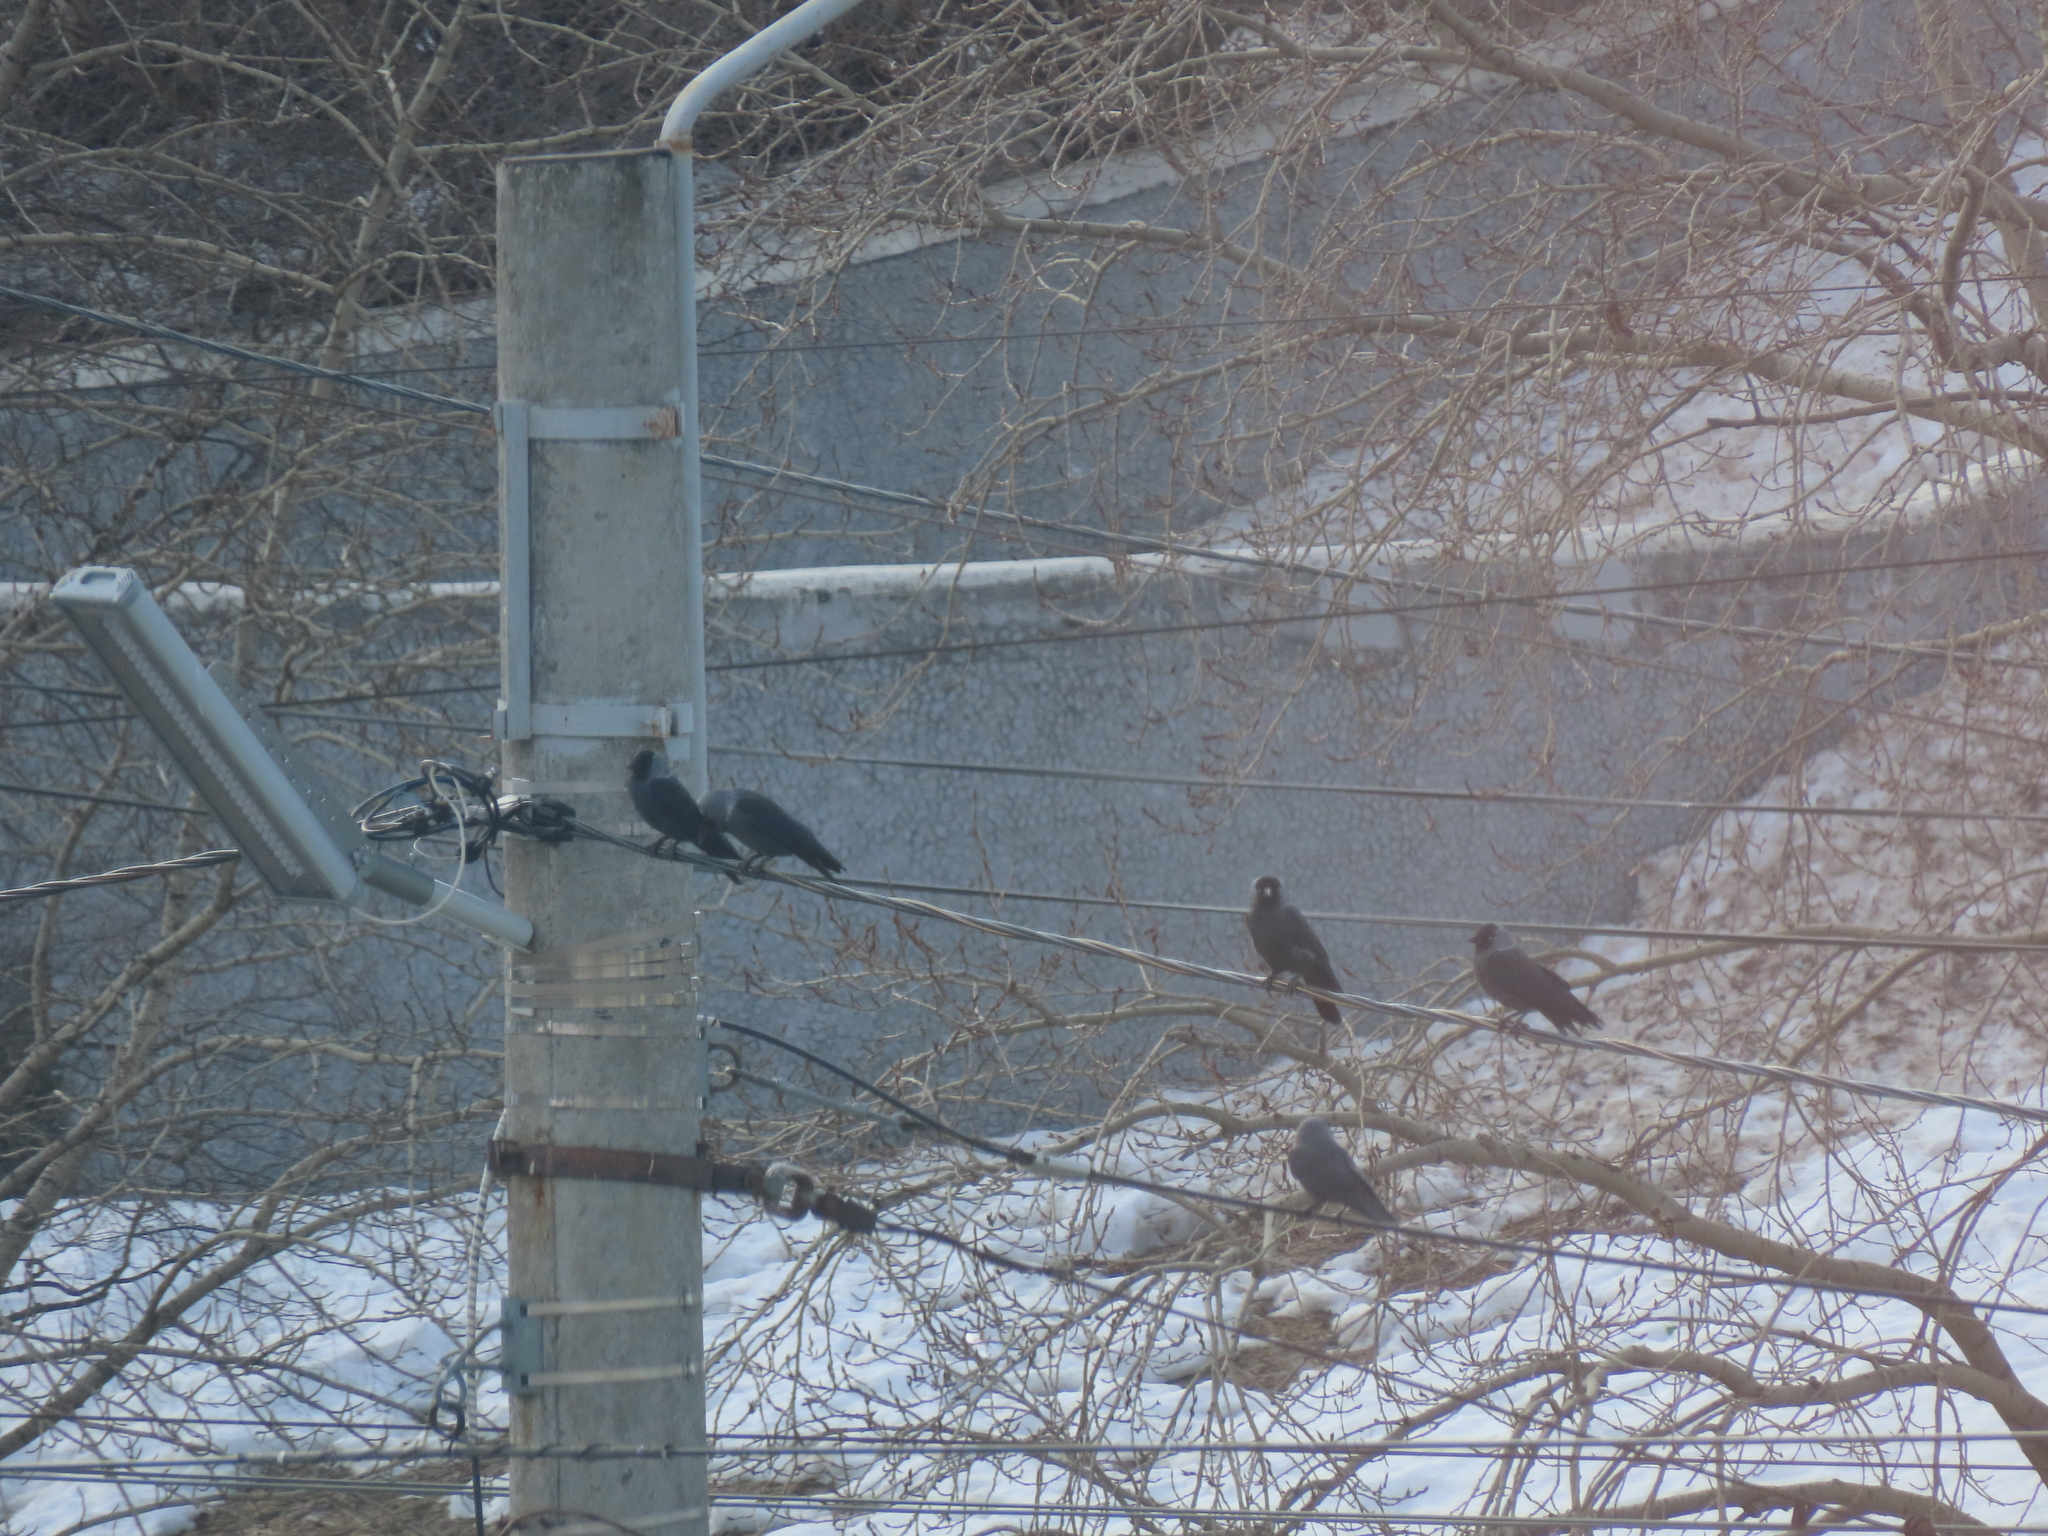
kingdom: Animalia
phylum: Chordata
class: Aves
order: Passeriformes
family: Corvidae
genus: Coloeus
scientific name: Coloeus monedula
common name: Western jackdaw
